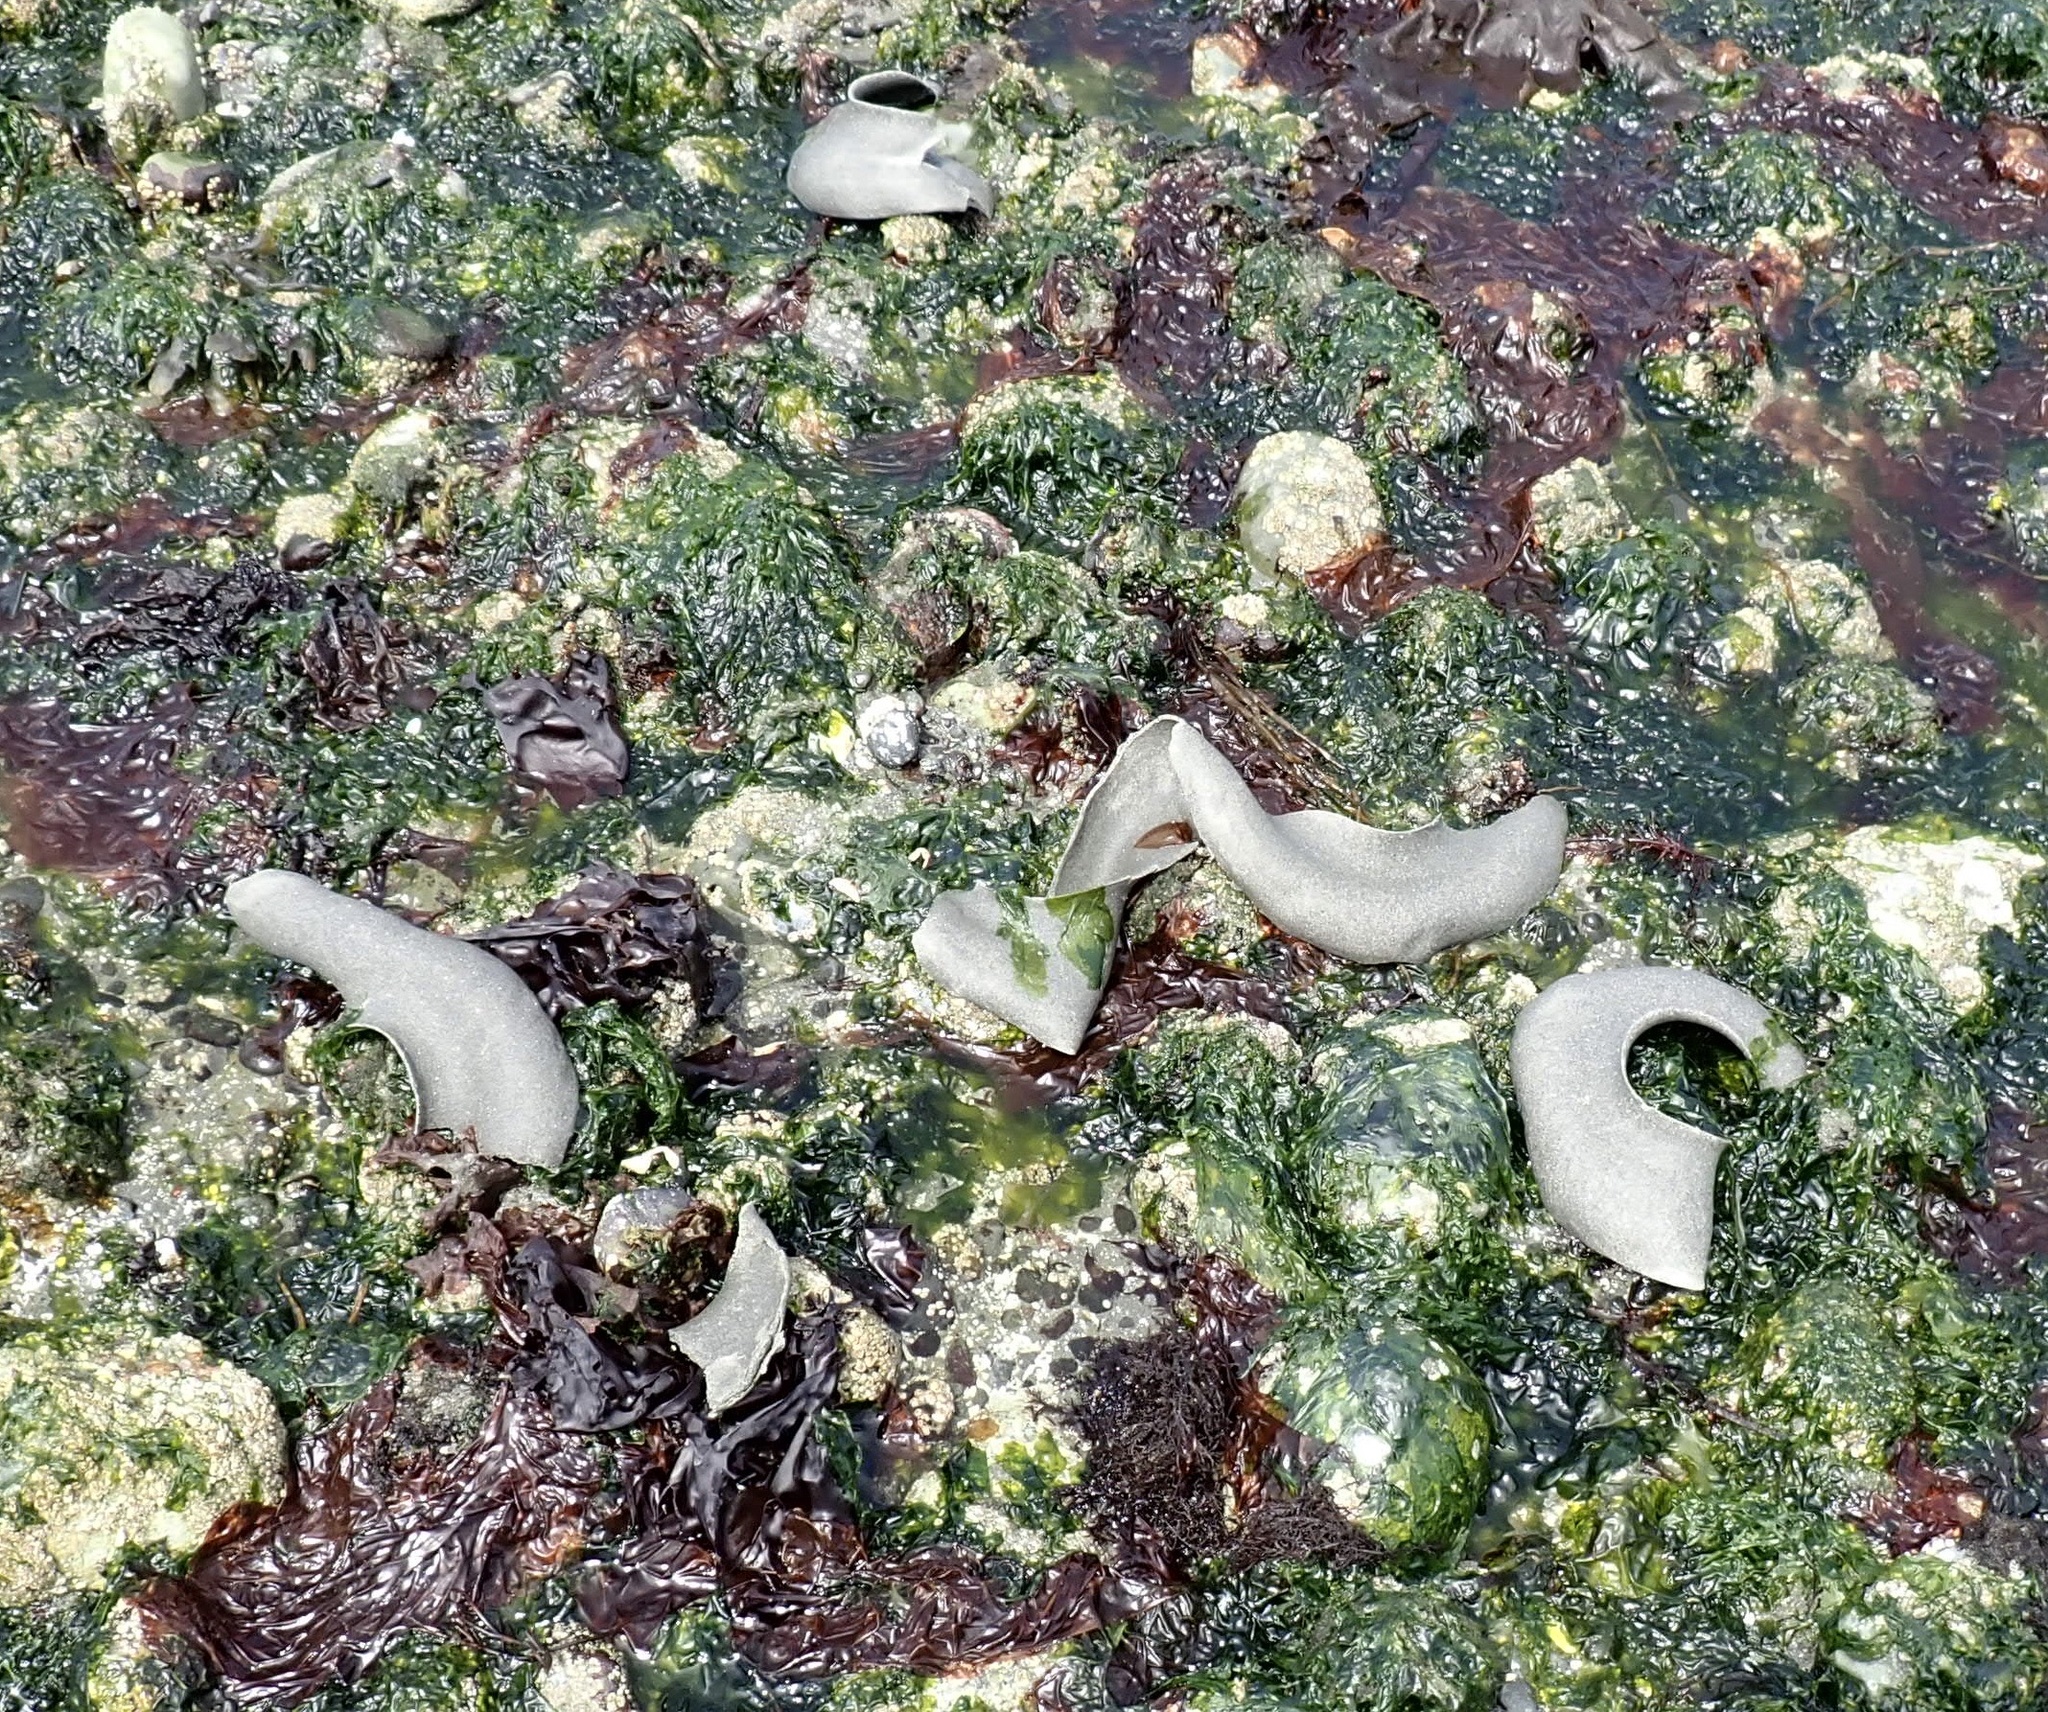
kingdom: Animalia
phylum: Mollusca
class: Gastropoda
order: Littorinimorpha
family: Naticidae
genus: Neverita
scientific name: Neverita lewisii
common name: Lewis' moonsnail
